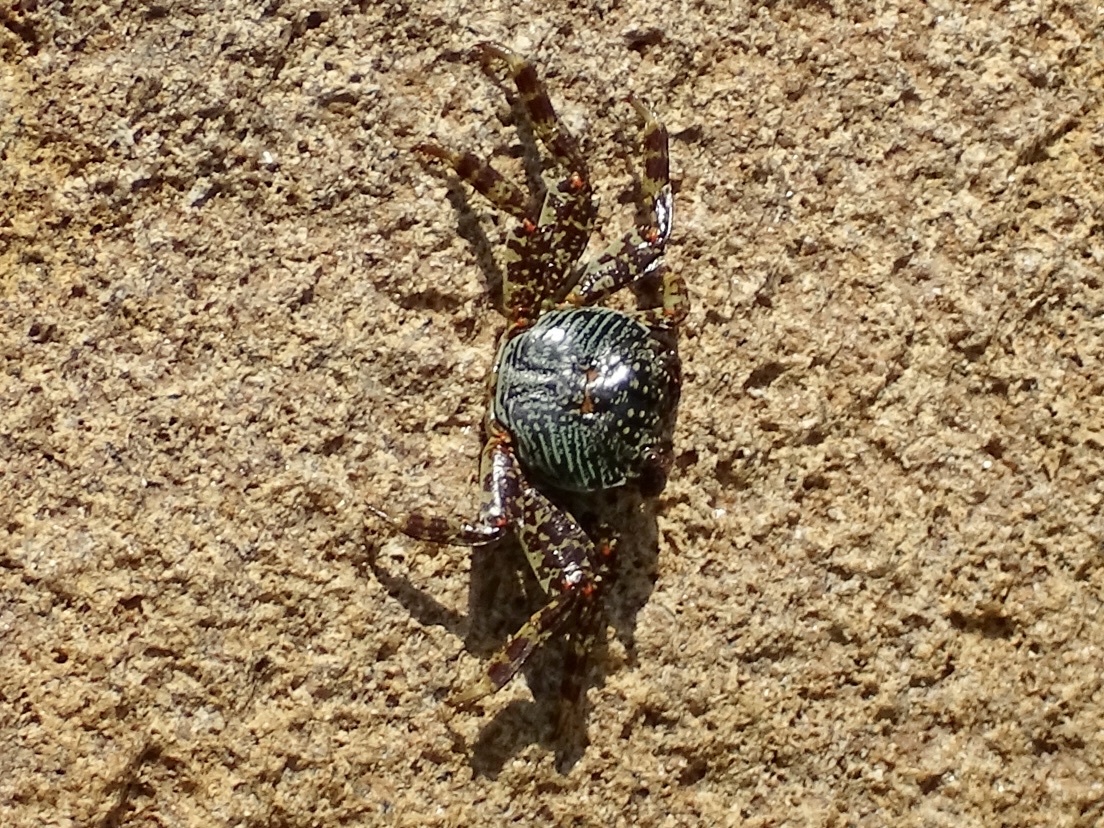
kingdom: Animalia
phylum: Arthropoda
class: Malacostraca
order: Decapoda
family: Grapsidae
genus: Grapsus
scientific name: Grapsus albolineatus
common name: Mottled lightfoot crab
